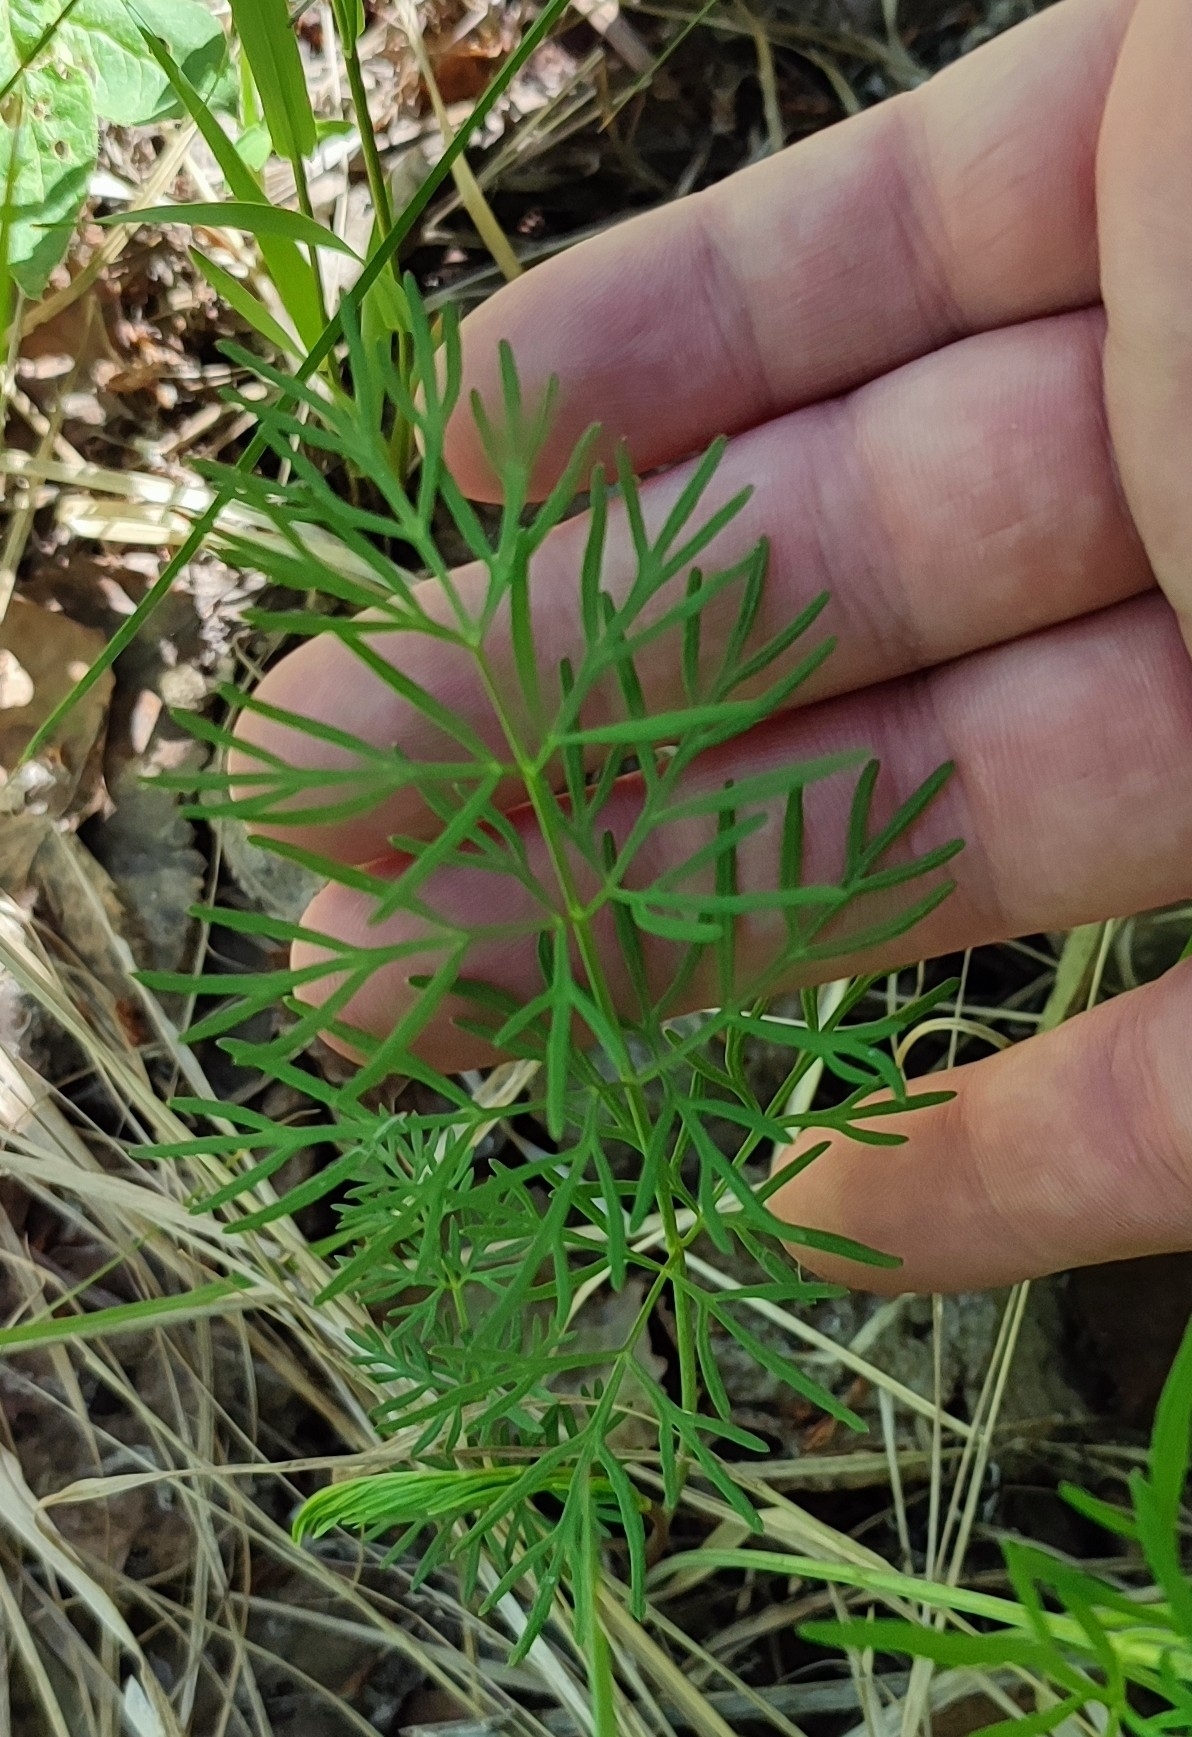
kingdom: Plantae
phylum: Tracheophyta
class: Magnoliopsida
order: Apiales
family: Apiaceae
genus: Kadenia
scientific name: Kadenia dubia
